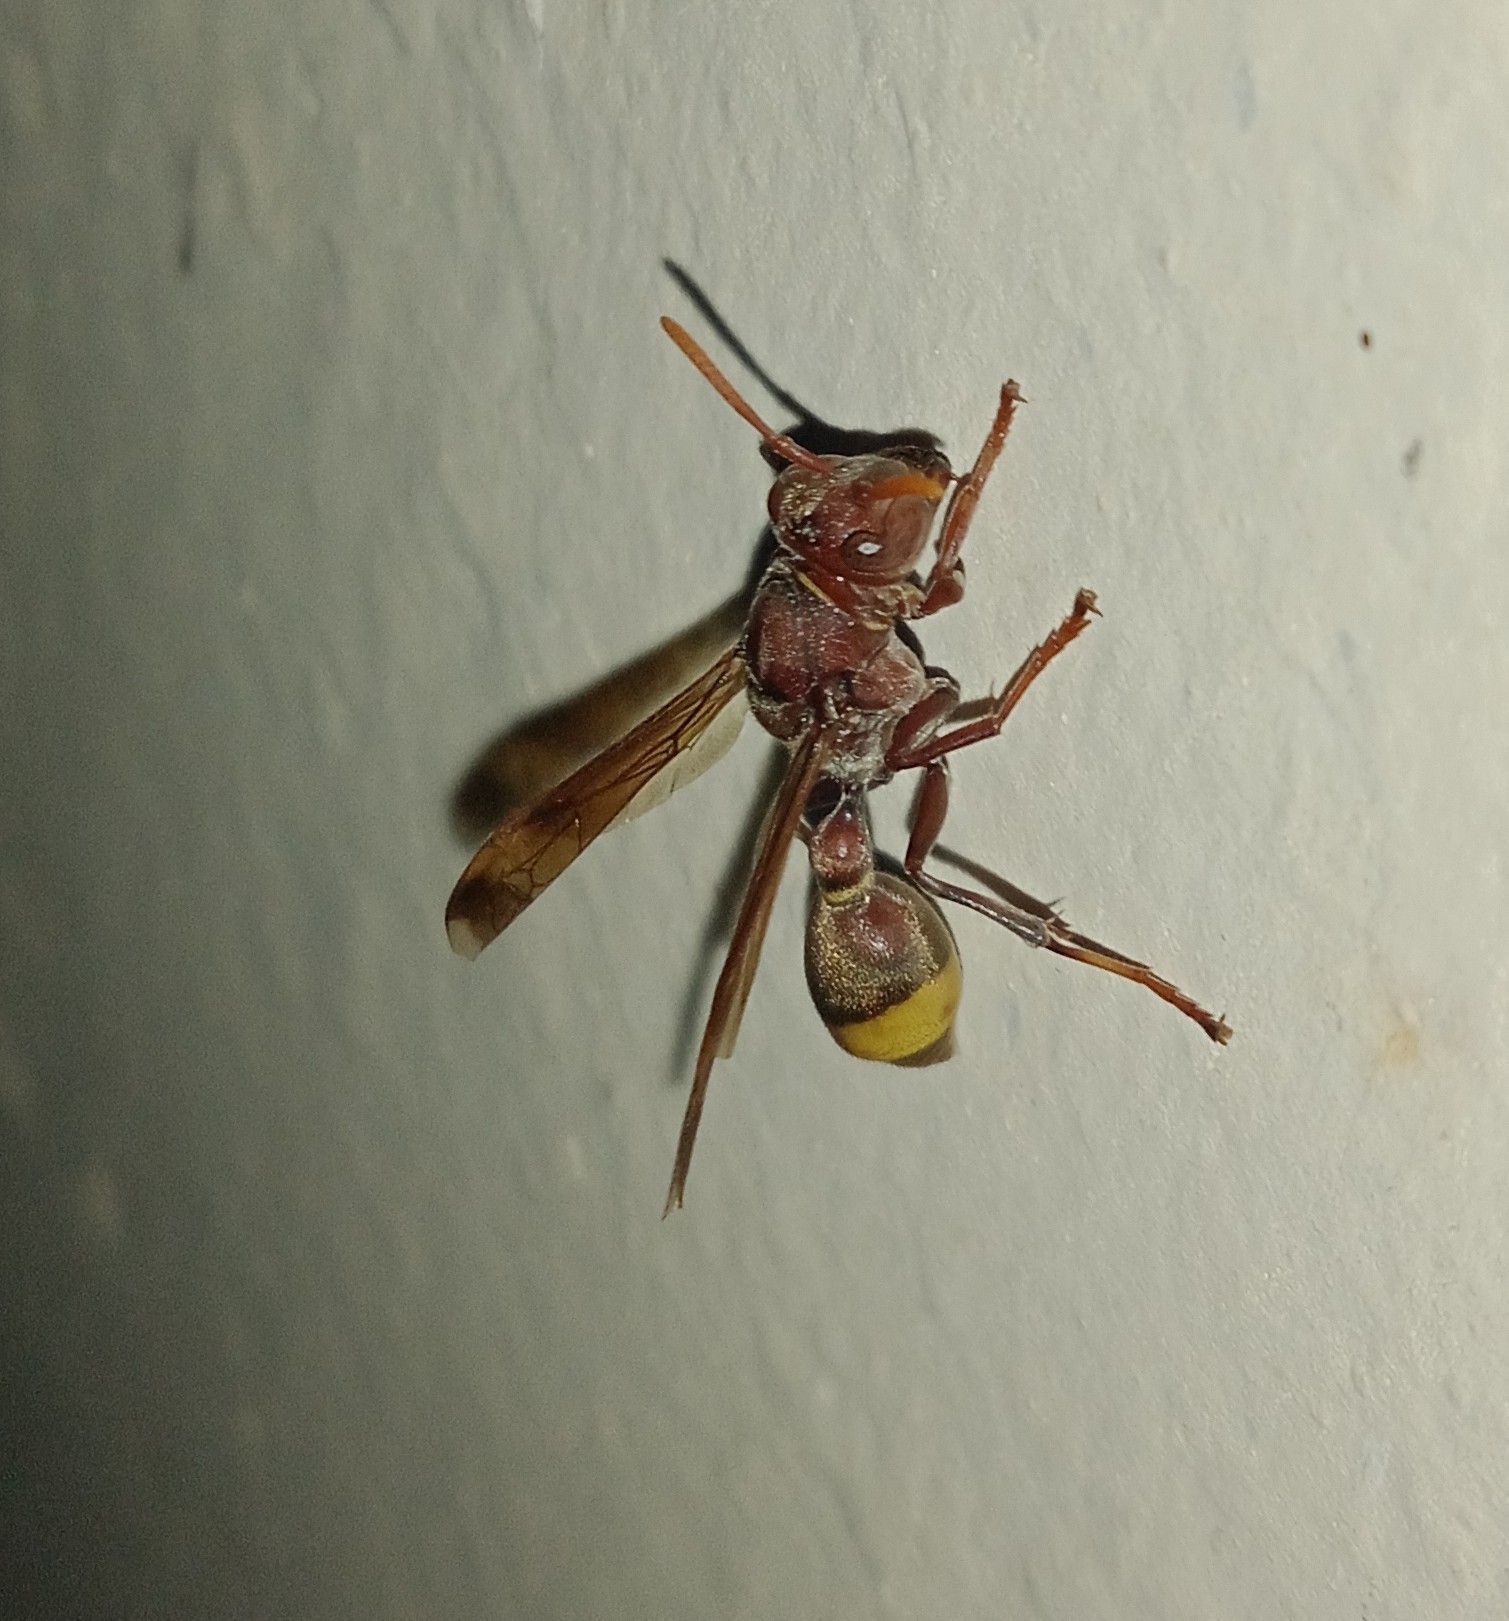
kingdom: Animalia
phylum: Arthropoda
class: Insecta
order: Hymenoptera
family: Vespidae
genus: Ropalidia
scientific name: Ropalidia
